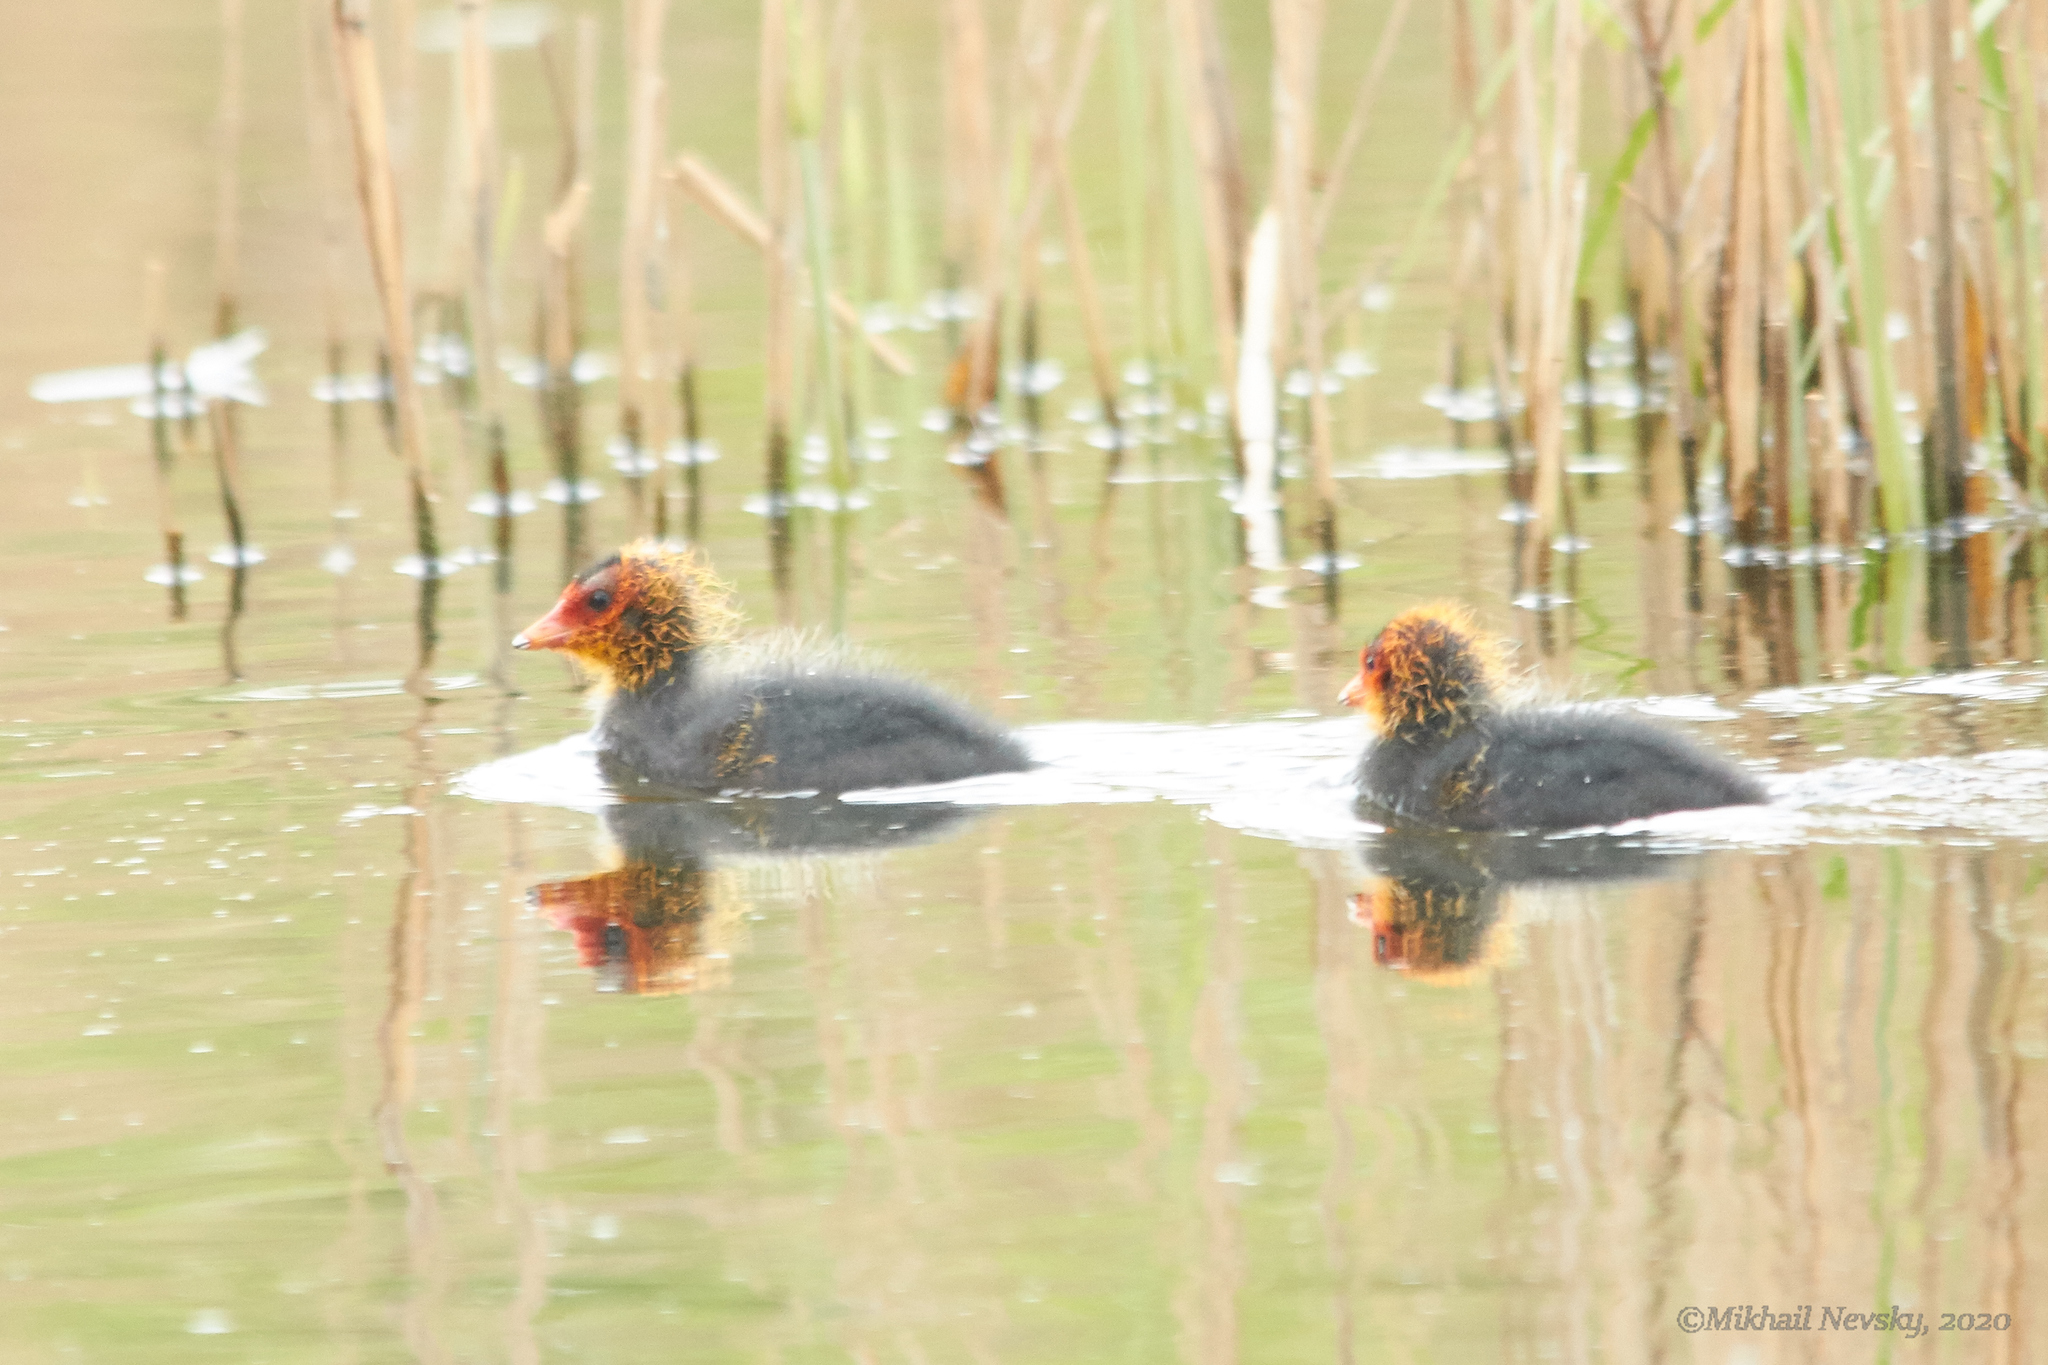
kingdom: Animalia
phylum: Chordata
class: Aves
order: Gruiformes
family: Rallidae
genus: Fulica
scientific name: Fulica atra
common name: Eurasian coot
